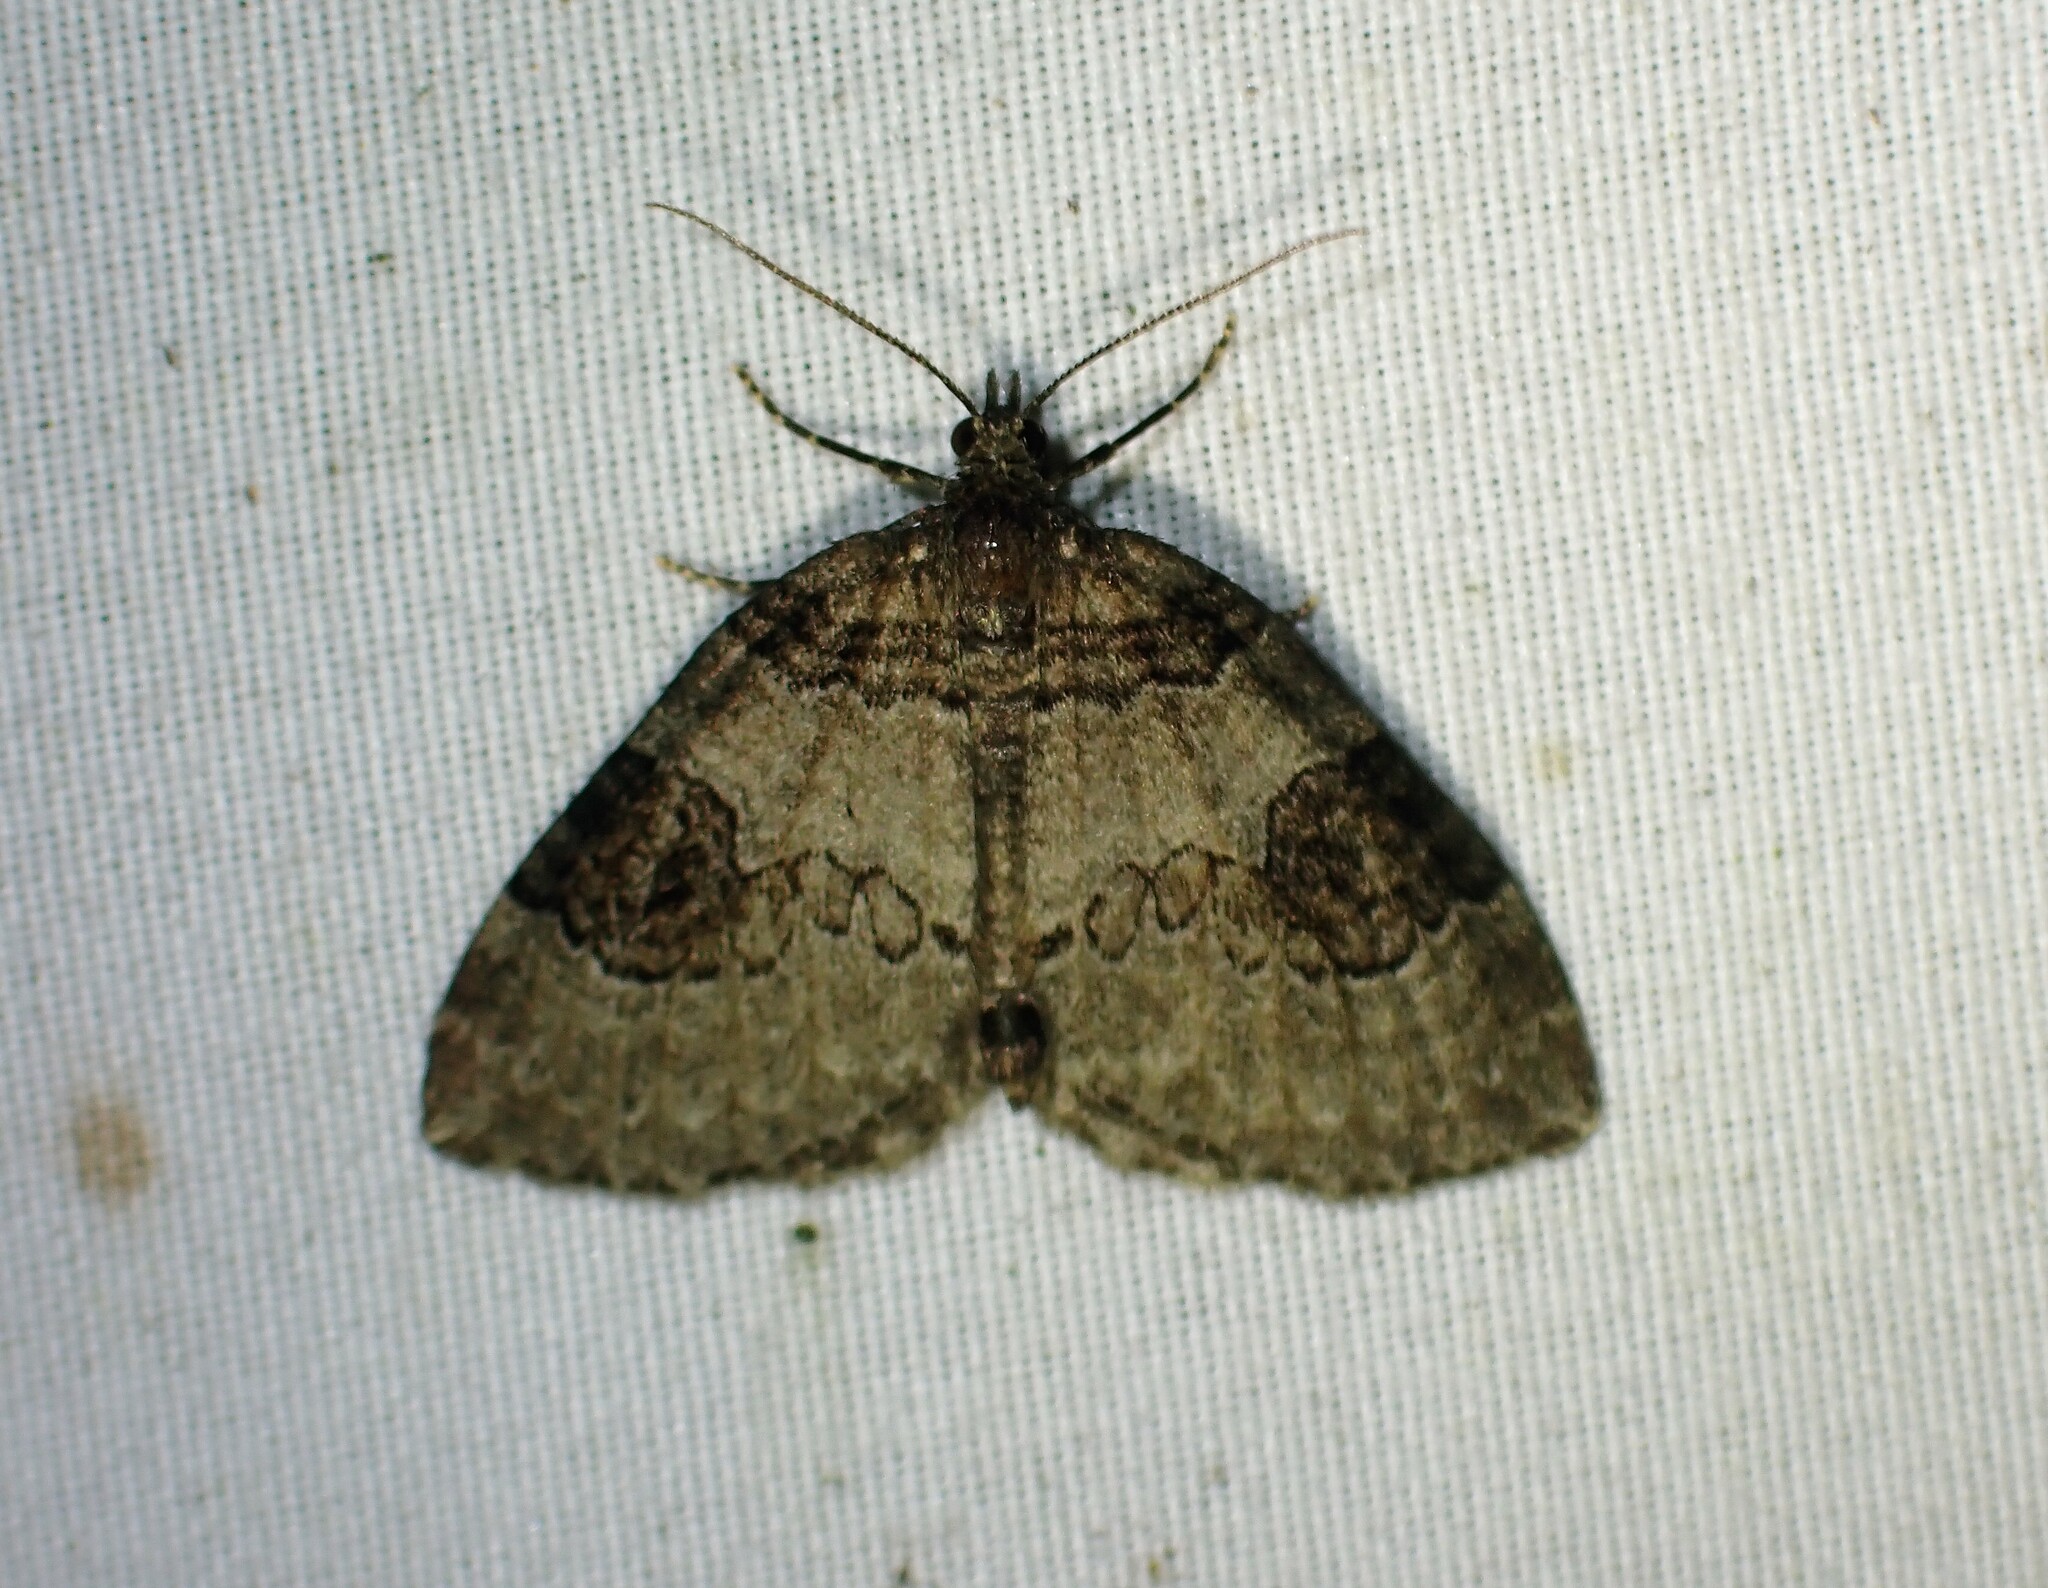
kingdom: Animalia
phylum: Arthropoda
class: Insecta
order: Lepidoptera
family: Geometridae
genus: Plemyria
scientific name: Plemyria georgii
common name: George's carpet moth
